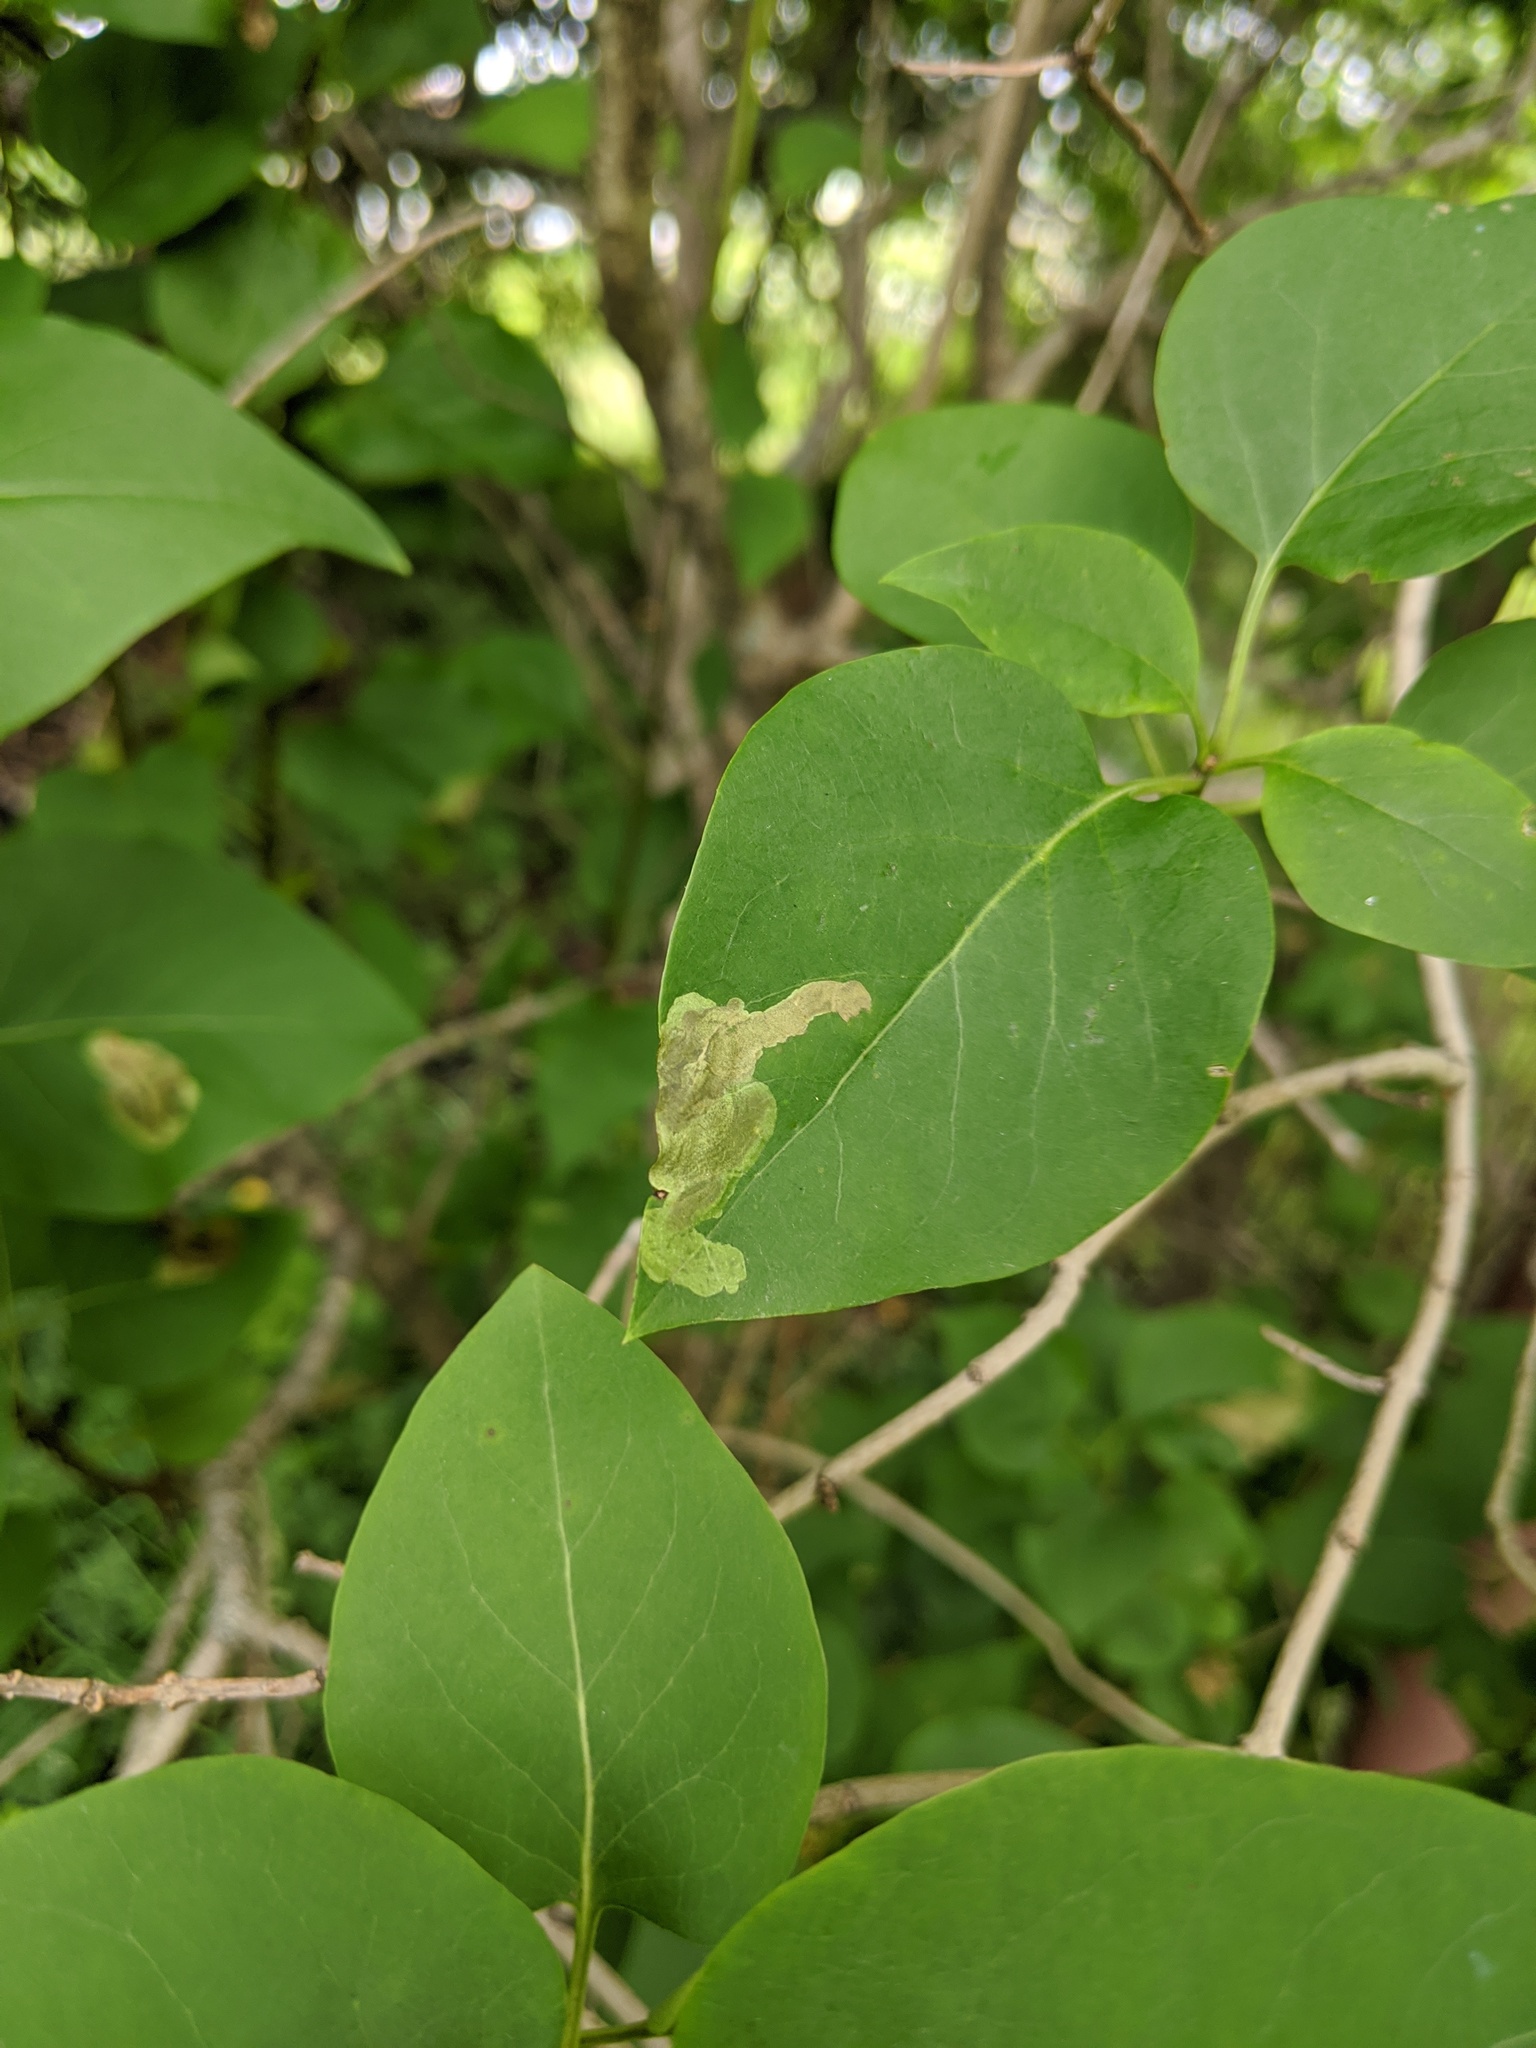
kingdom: Animalia
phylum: Arthropoda
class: Insecta
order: Lepidoptera
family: Gracillariidae
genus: Gracillaria
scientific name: Gracillaria syringella
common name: Common slender
